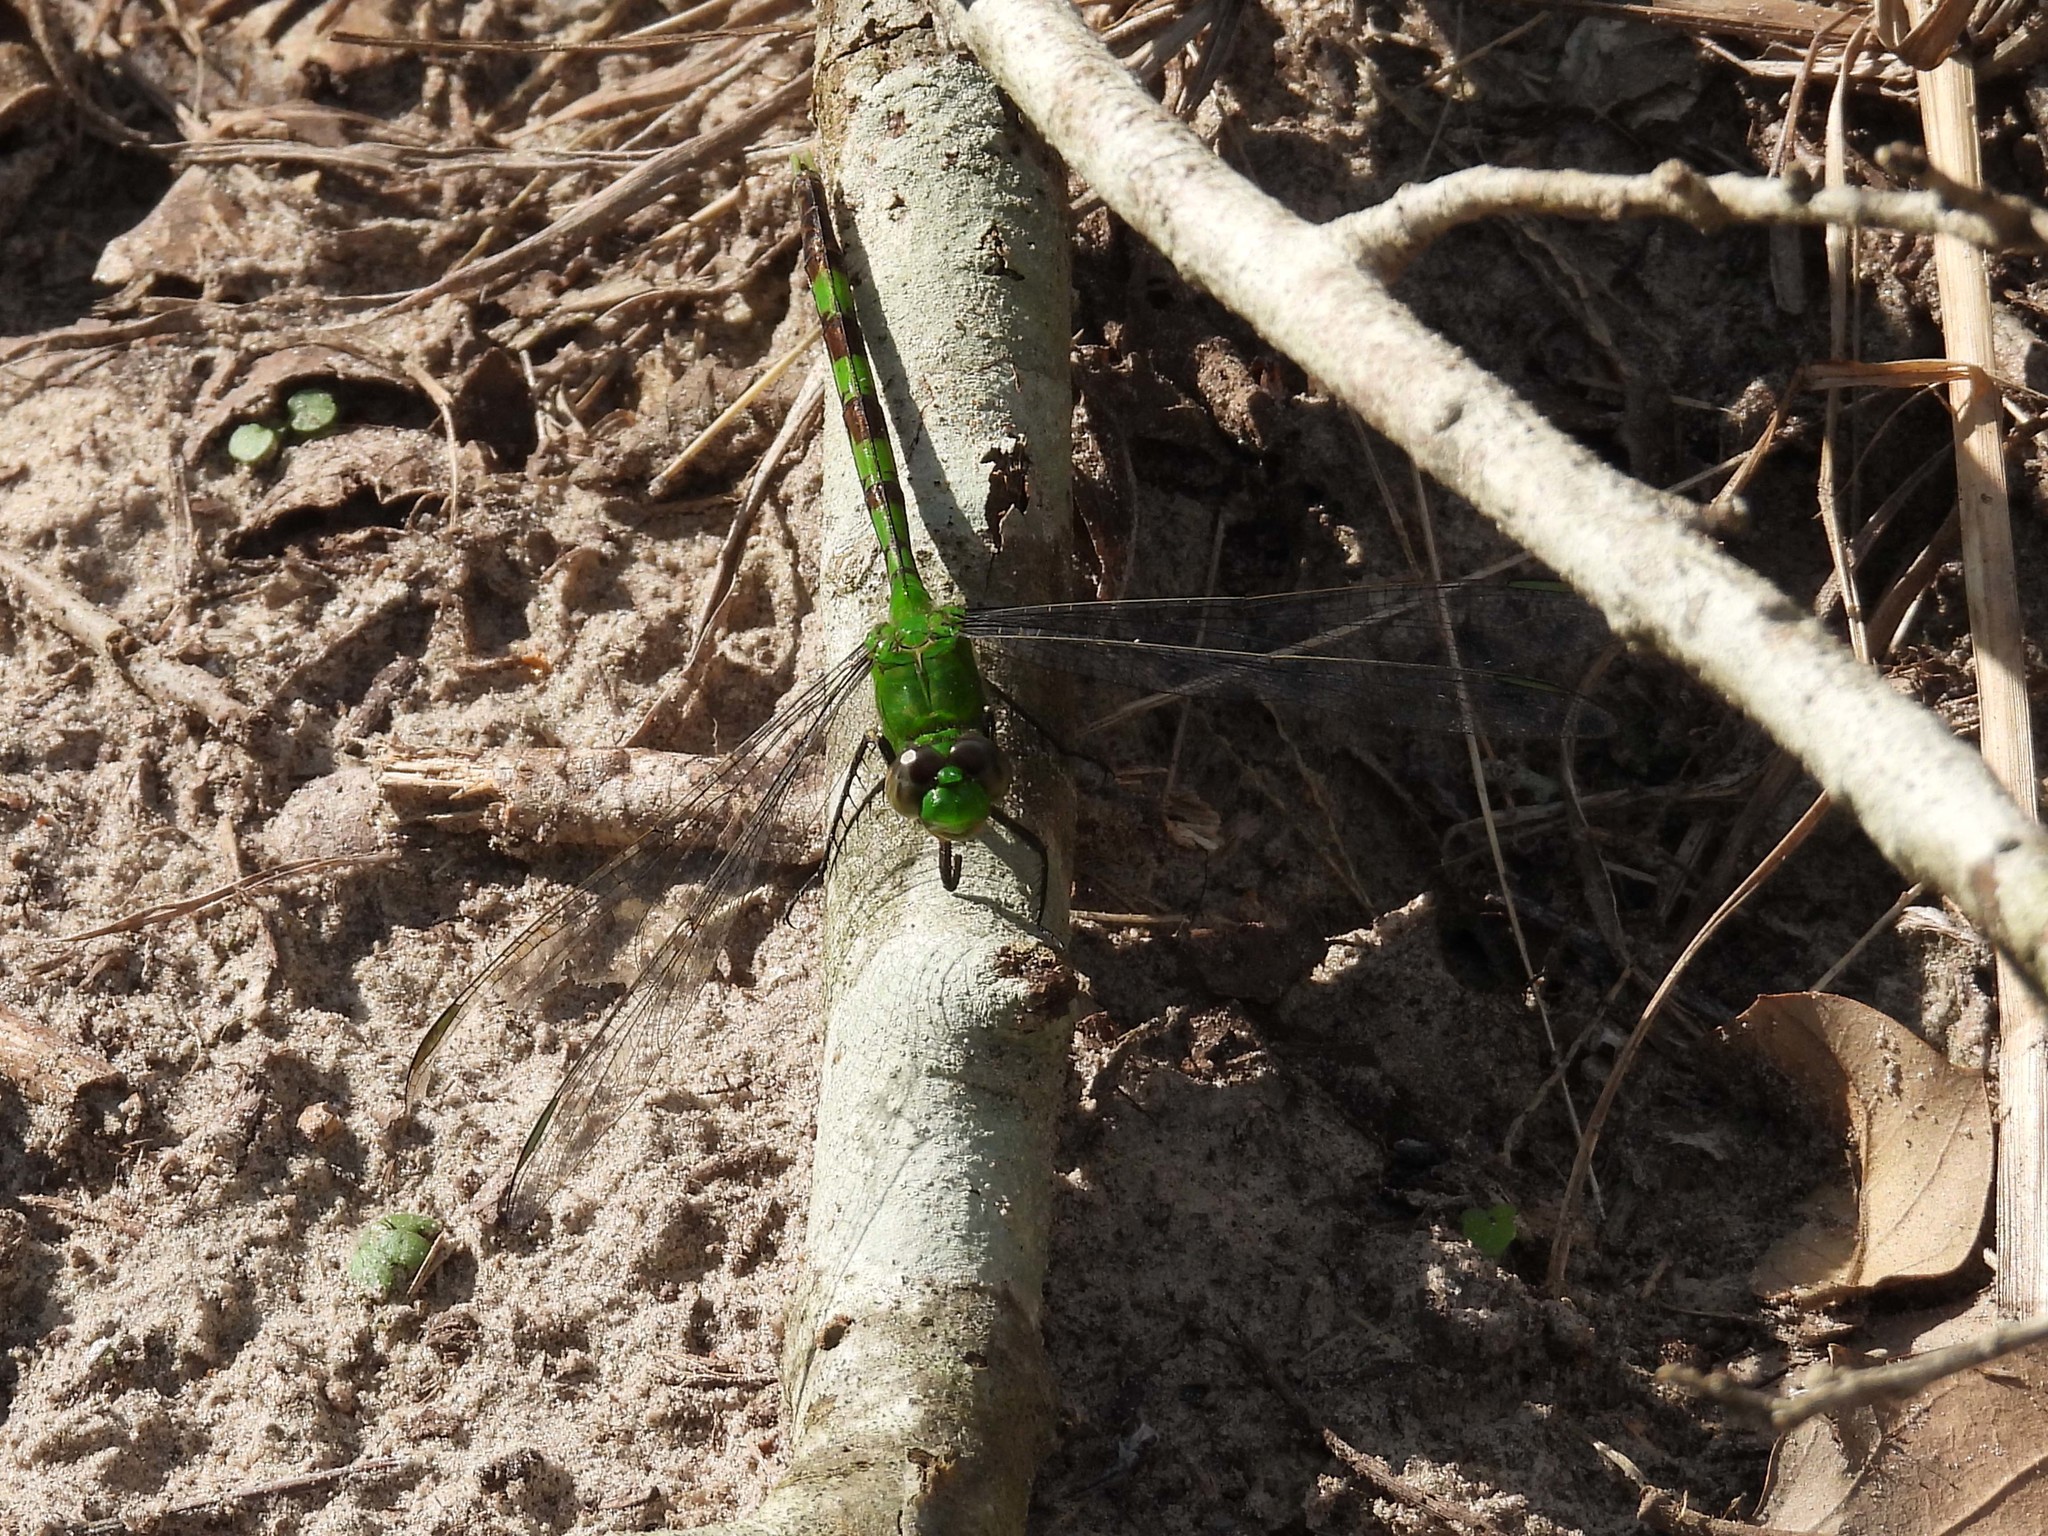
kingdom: Animalia
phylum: Arthropoda
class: Insecta
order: Odonata
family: Libellulidae
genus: Erythemis
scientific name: Erythemis vesiculosa
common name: Great pondhawk
